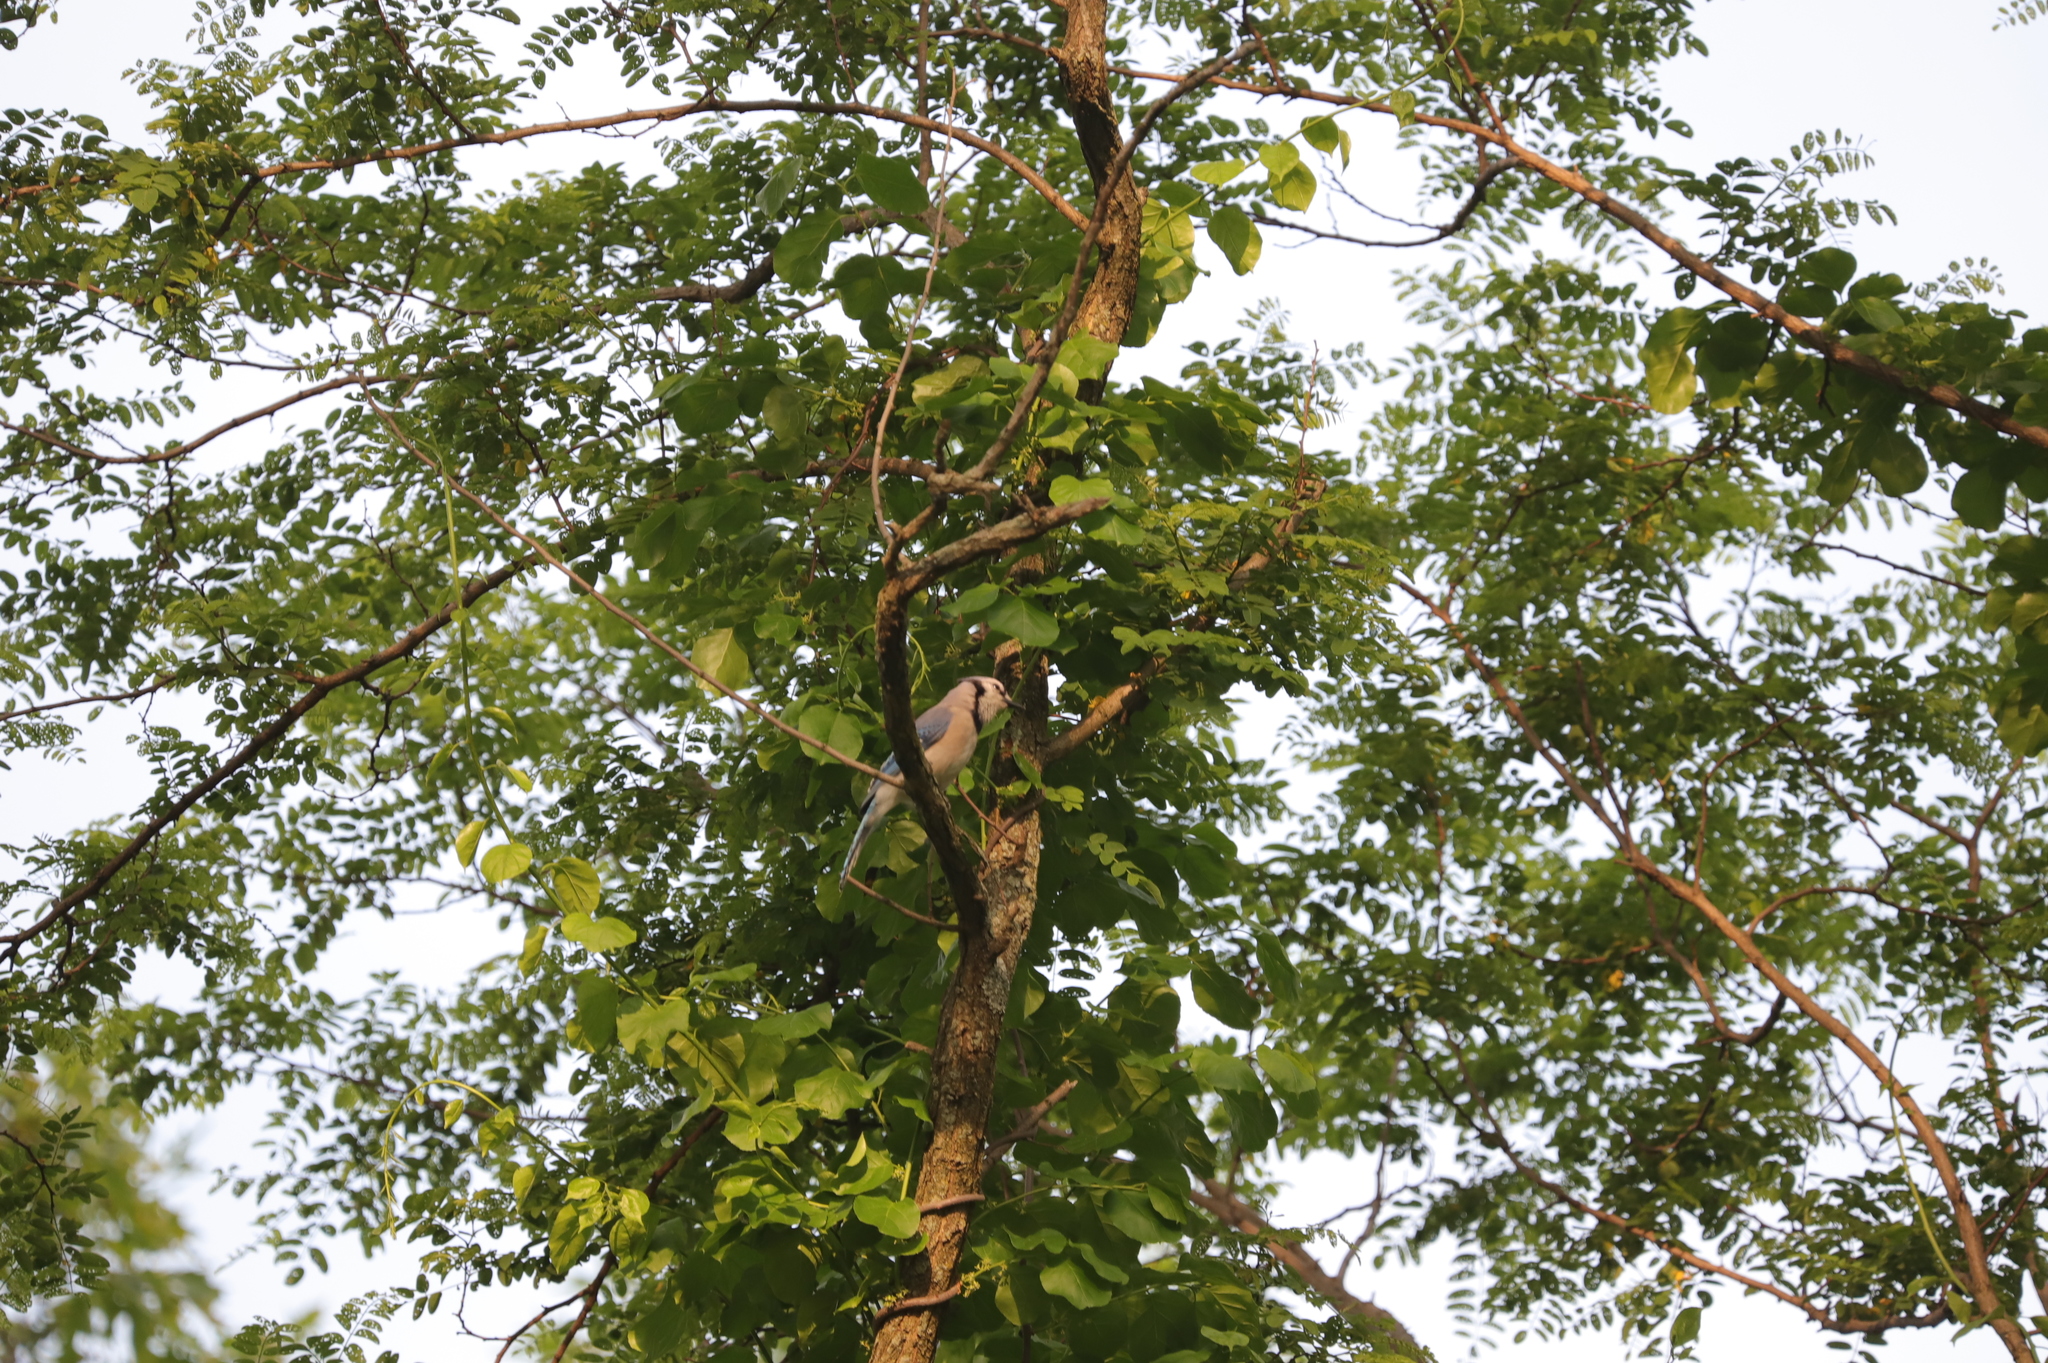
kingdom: Animalia
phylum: Chordata
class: Aves
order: Passeriformes
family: Corvidae
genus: Cyanocitta
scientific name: Cyanocitta cristata
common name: Blue jay
